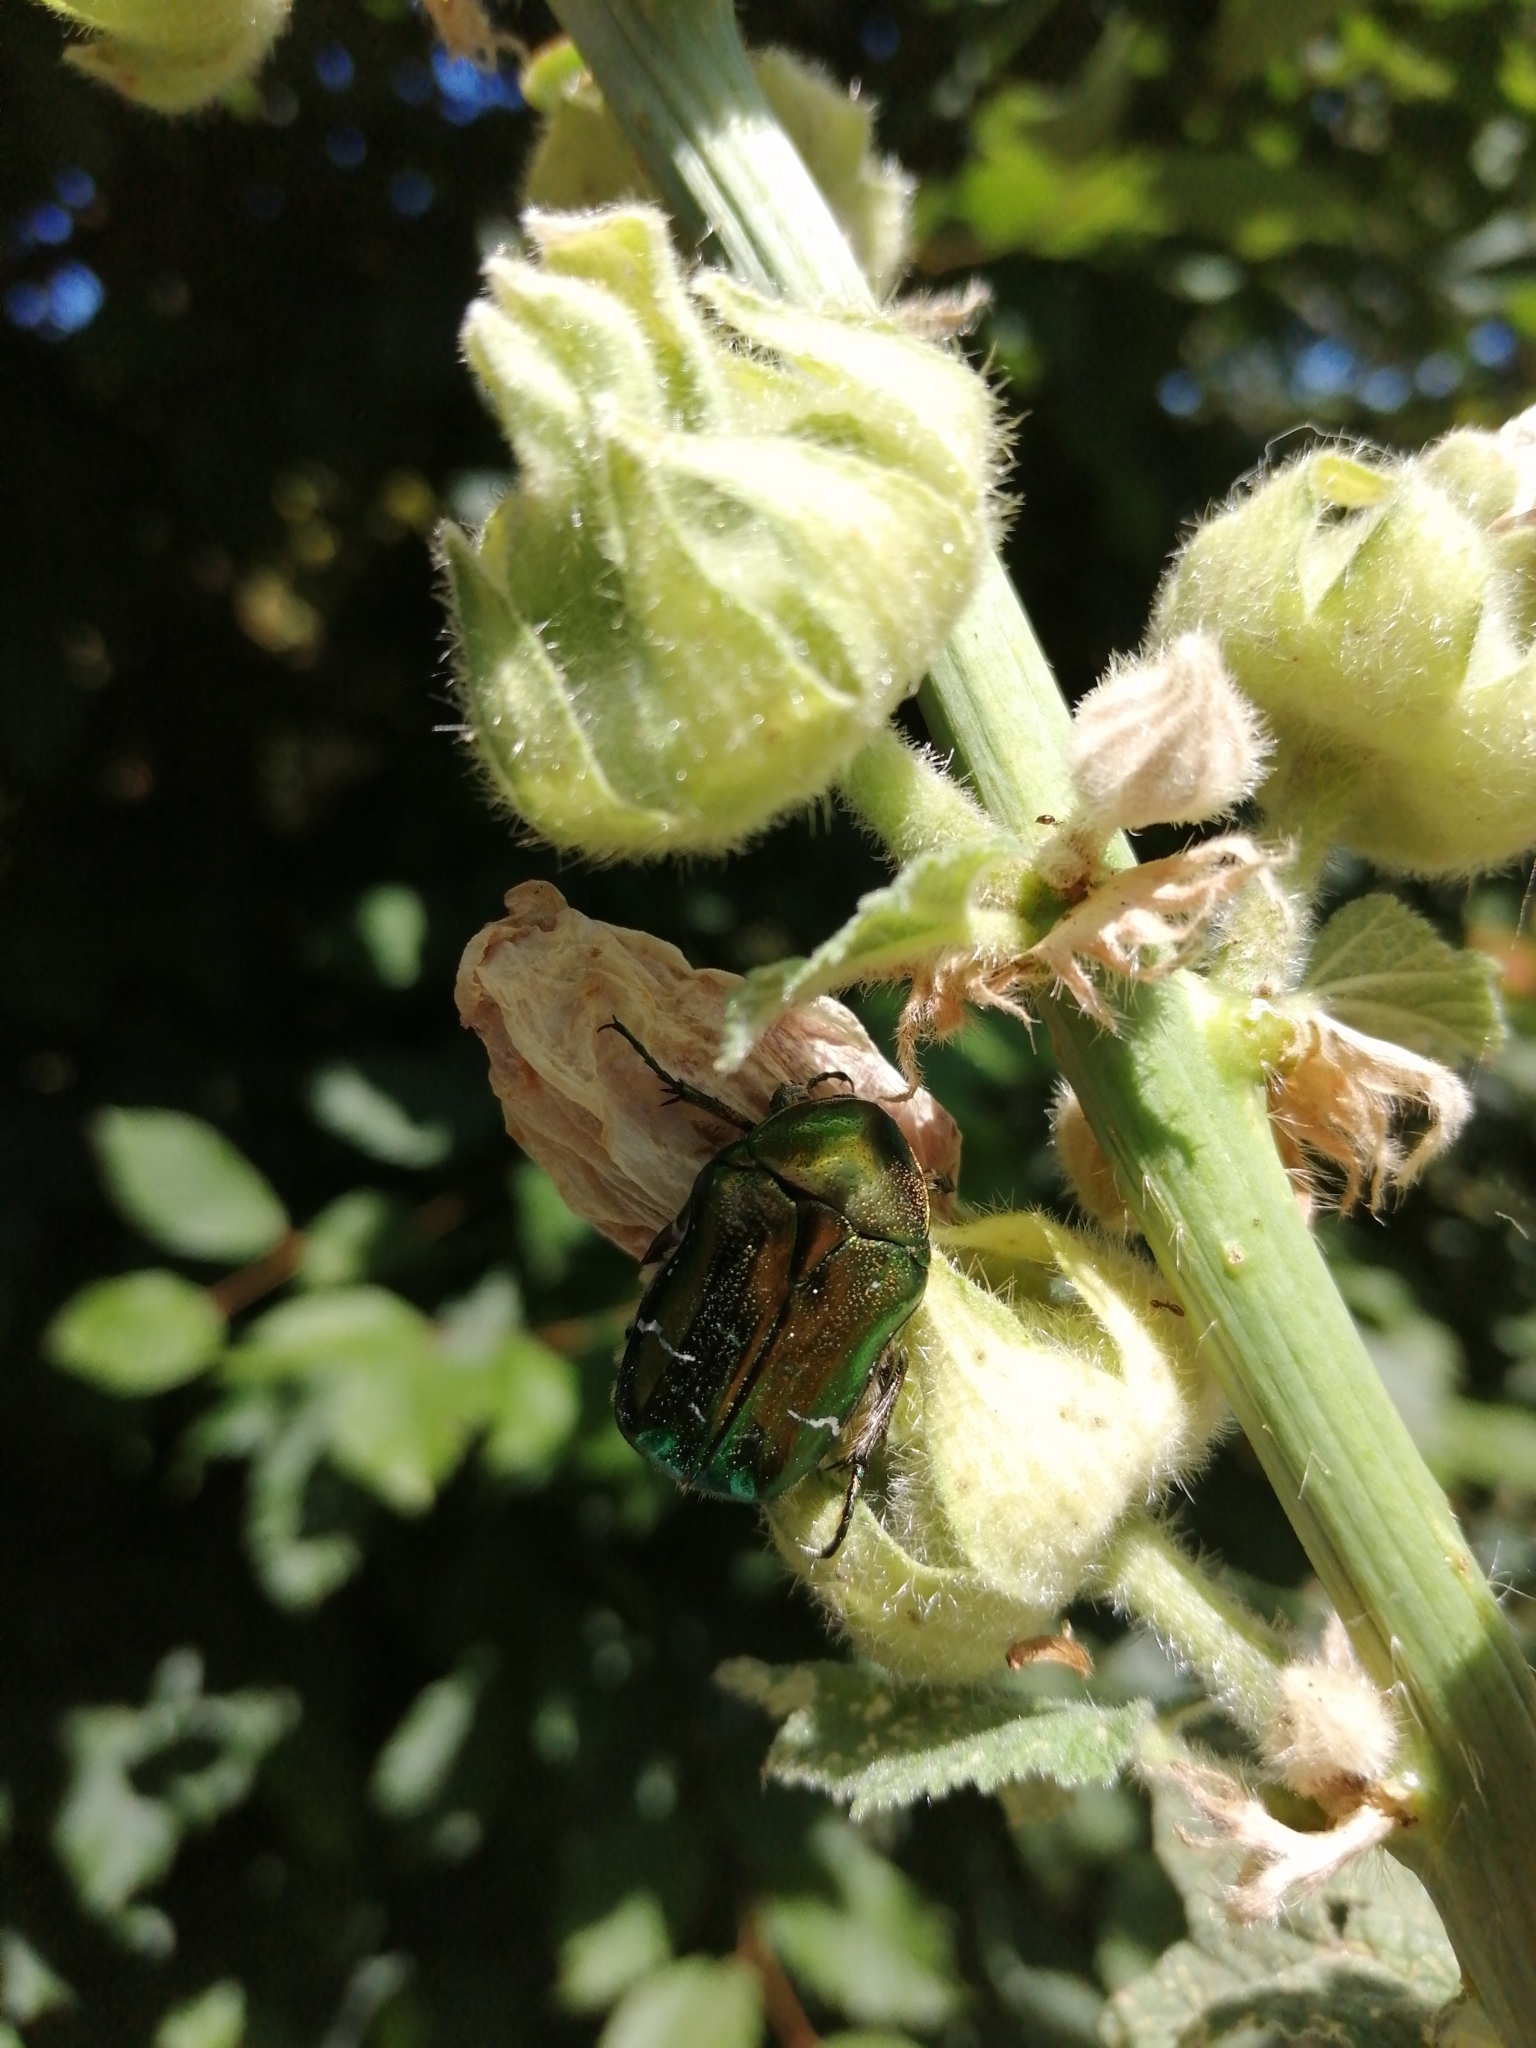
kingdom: Animalia
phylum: Arthropoda
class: Insecta
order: Coleoptera
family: Scarabaeidae
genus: Cetonia
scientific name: Cetonia aurata
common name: Rose chafer
